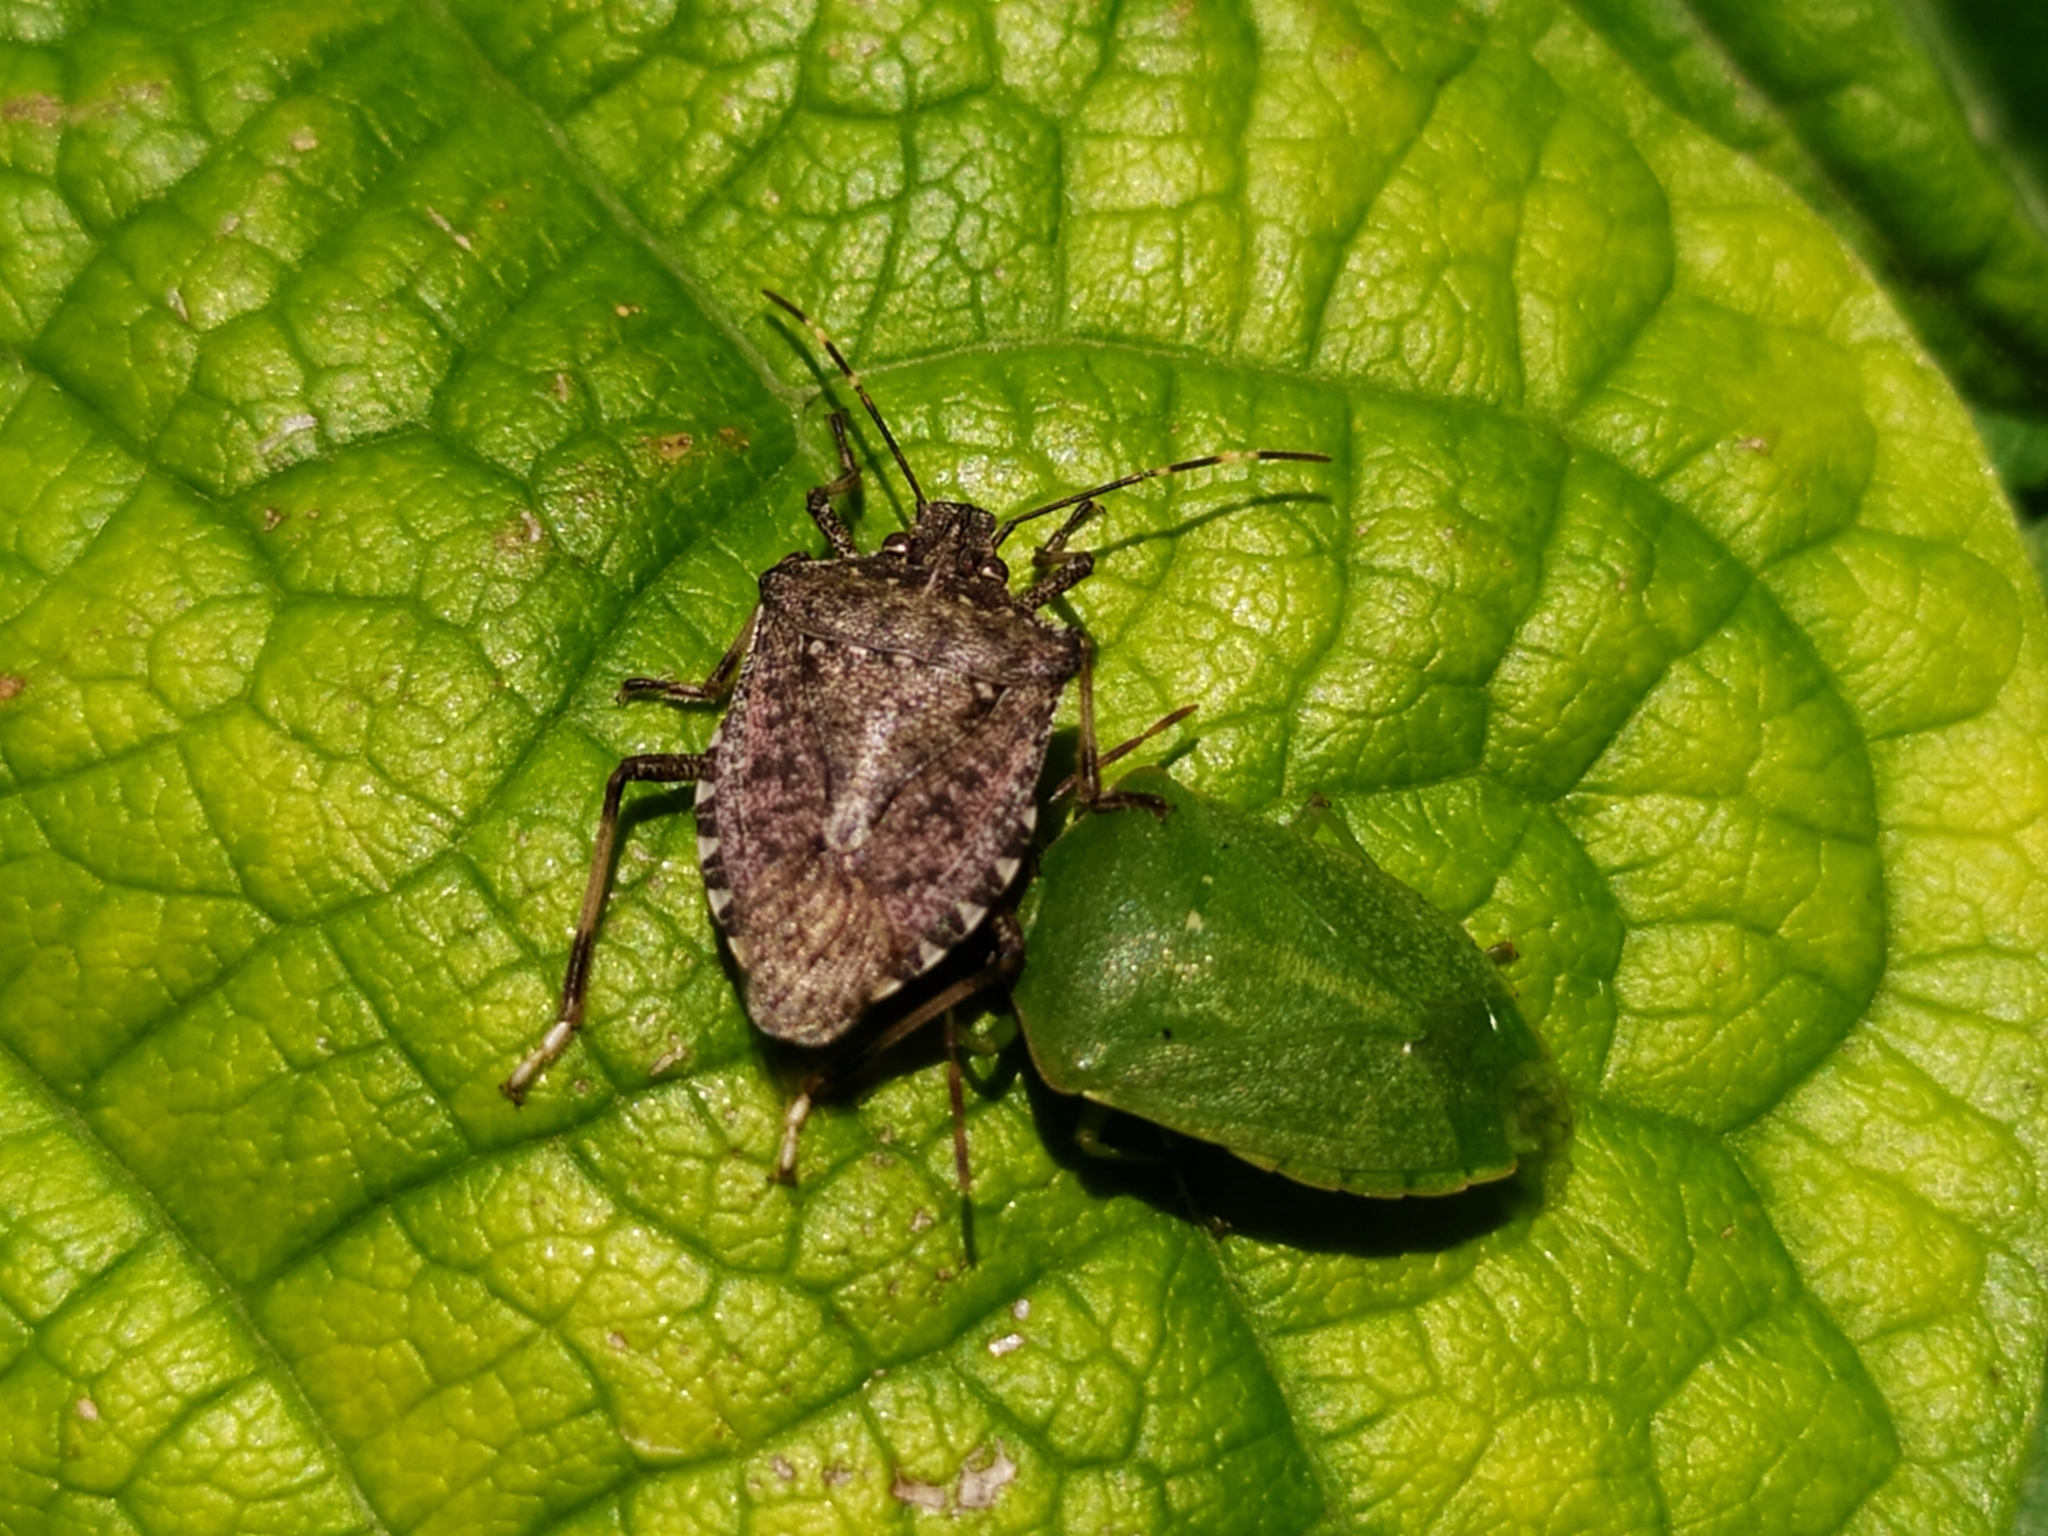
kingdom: Animalia
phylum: Arthropoda
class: Insecta
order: Hemiptera
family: Pentatomidae
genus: Nezara
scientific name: Nezara viridula
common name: Southern green stink bug
